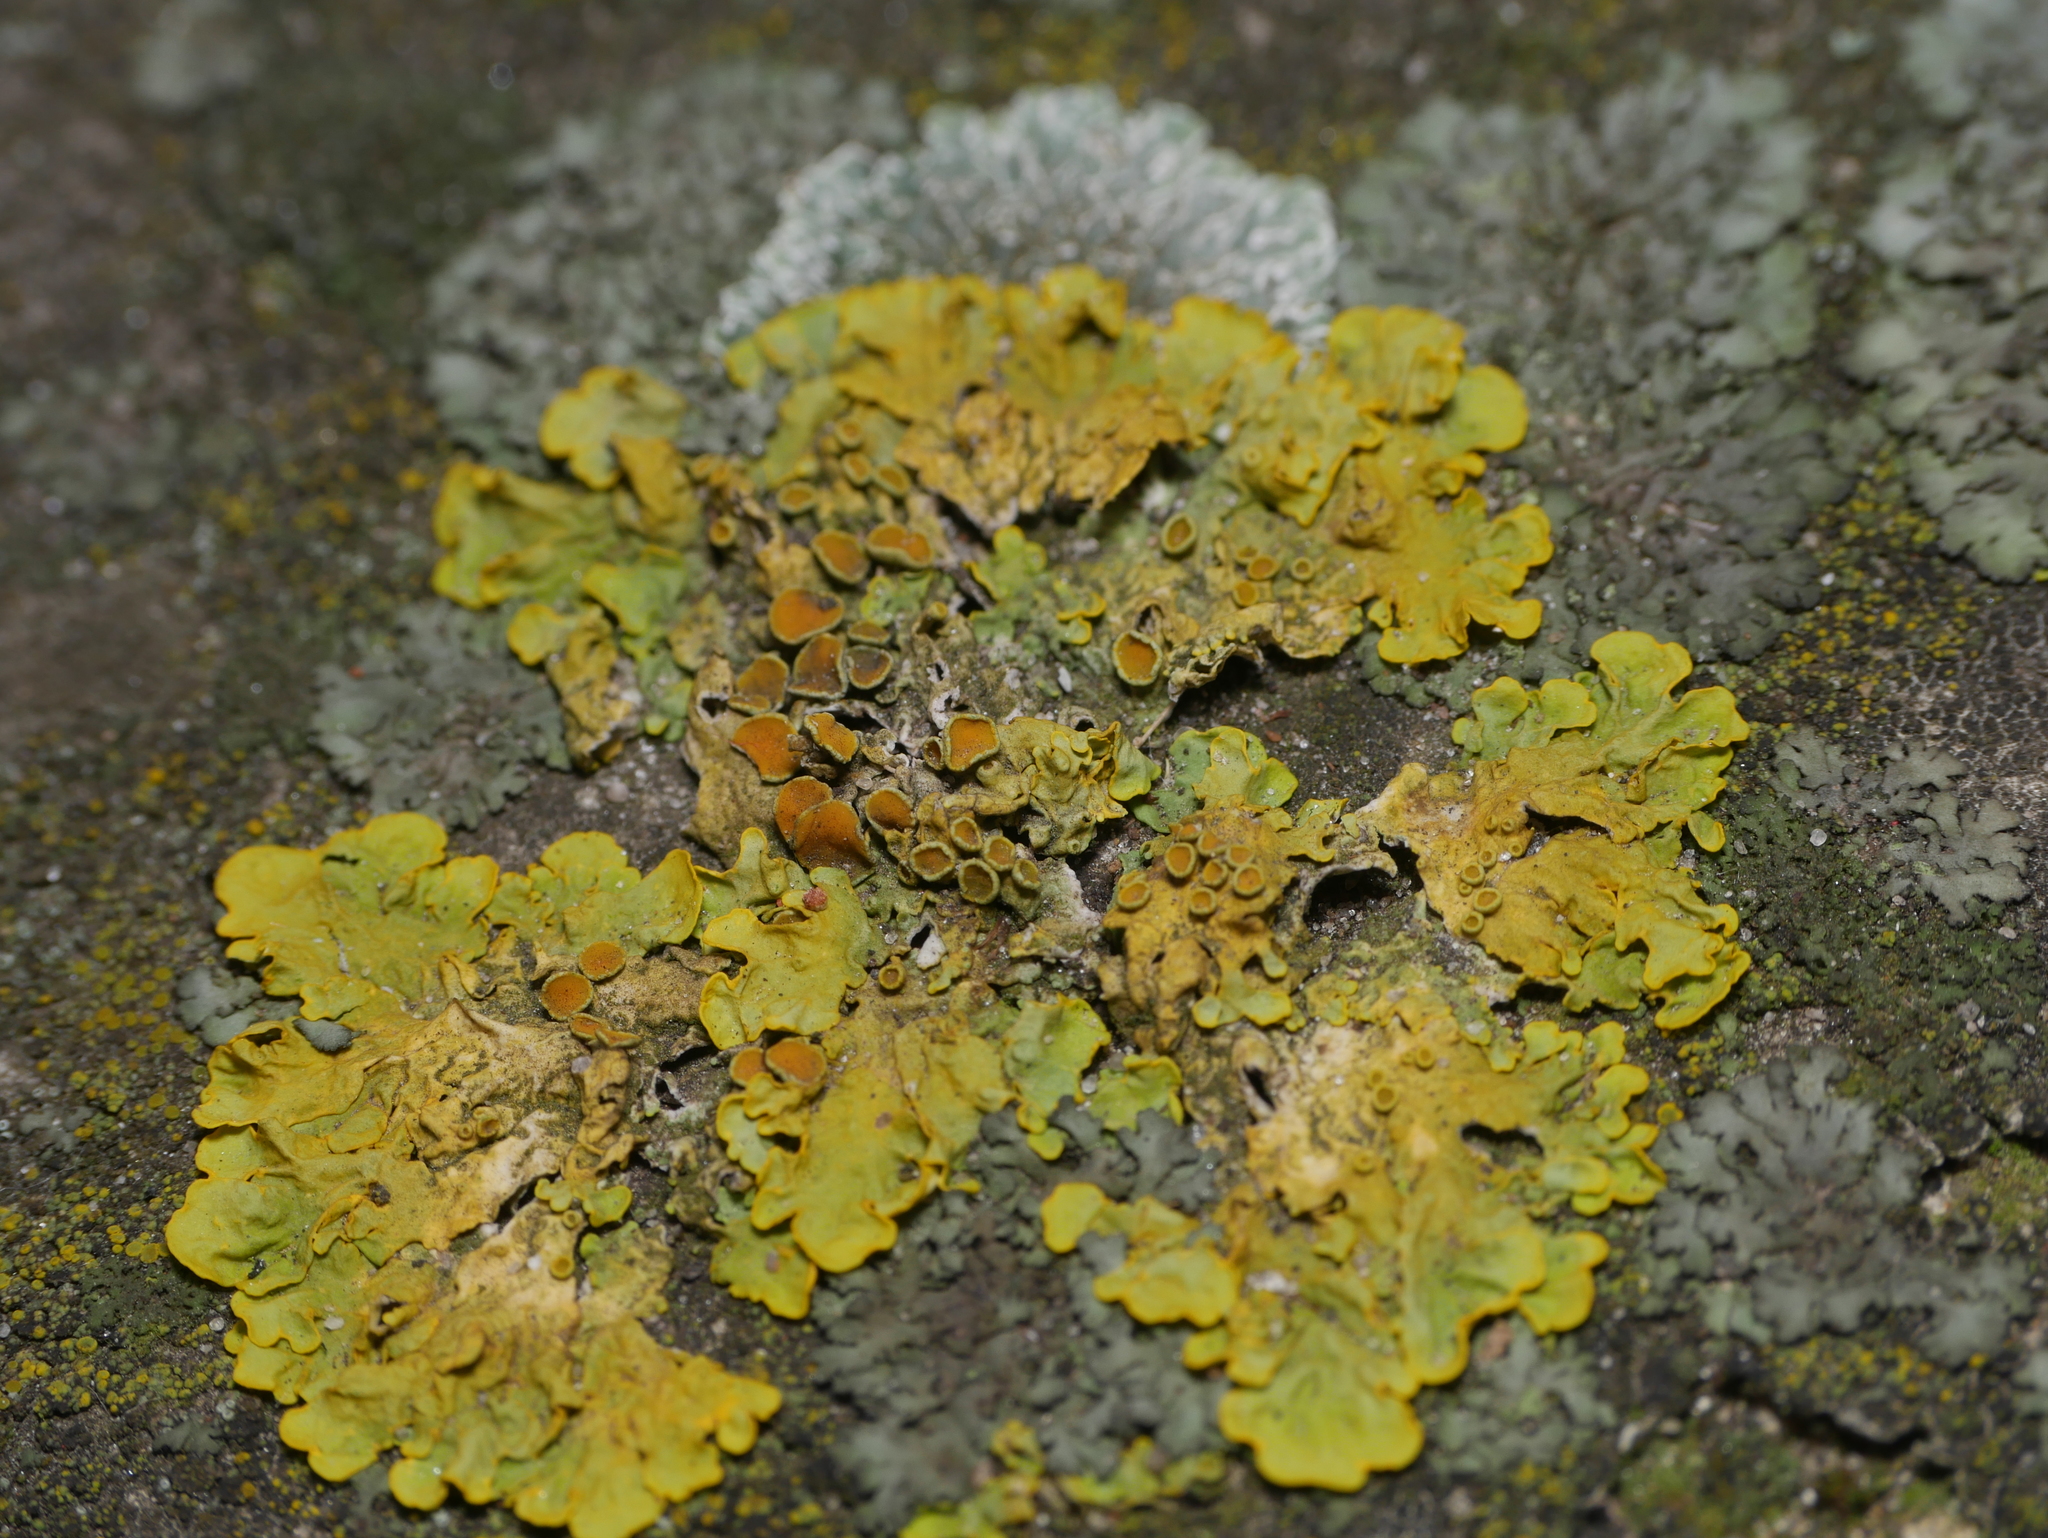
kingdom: Fungi
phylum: Ascomycota
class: Lecanoromycetes
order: Teloschistales
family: Teloschistaceae
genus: Xanthoria
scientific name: Xanthoria parietina
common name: Common orange lichen
